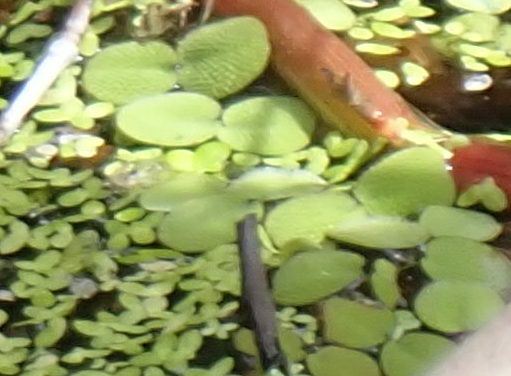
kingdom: Plantae
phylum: Tracheophyta
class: Polypodiopsida
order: Salviniales
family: Salviniaceae
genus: Salvinia
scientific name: Salvinia minima
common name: Water spangles
